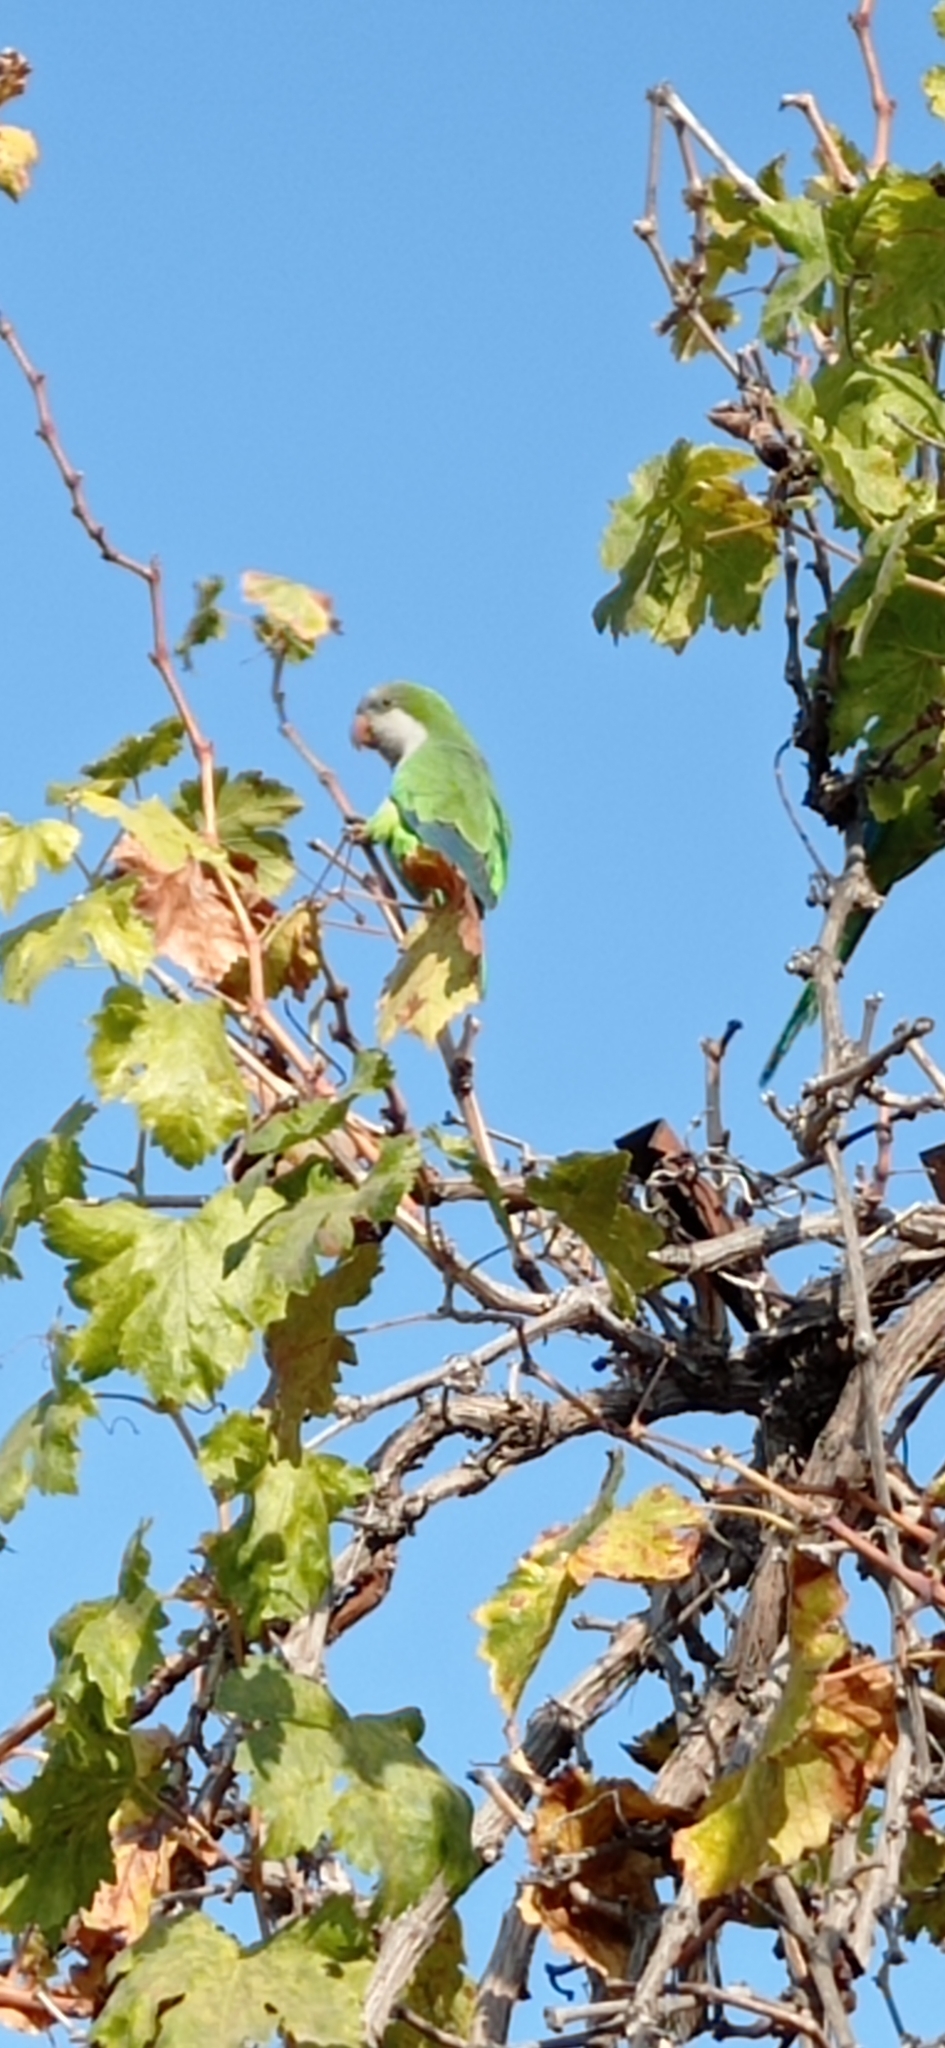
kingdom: Animalia
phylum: Chordata
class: Aves
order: Psittaciformes
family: Psittacidae
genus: Myiopsitta
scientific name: Myiopsitta monachus
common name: Monk parakeet
